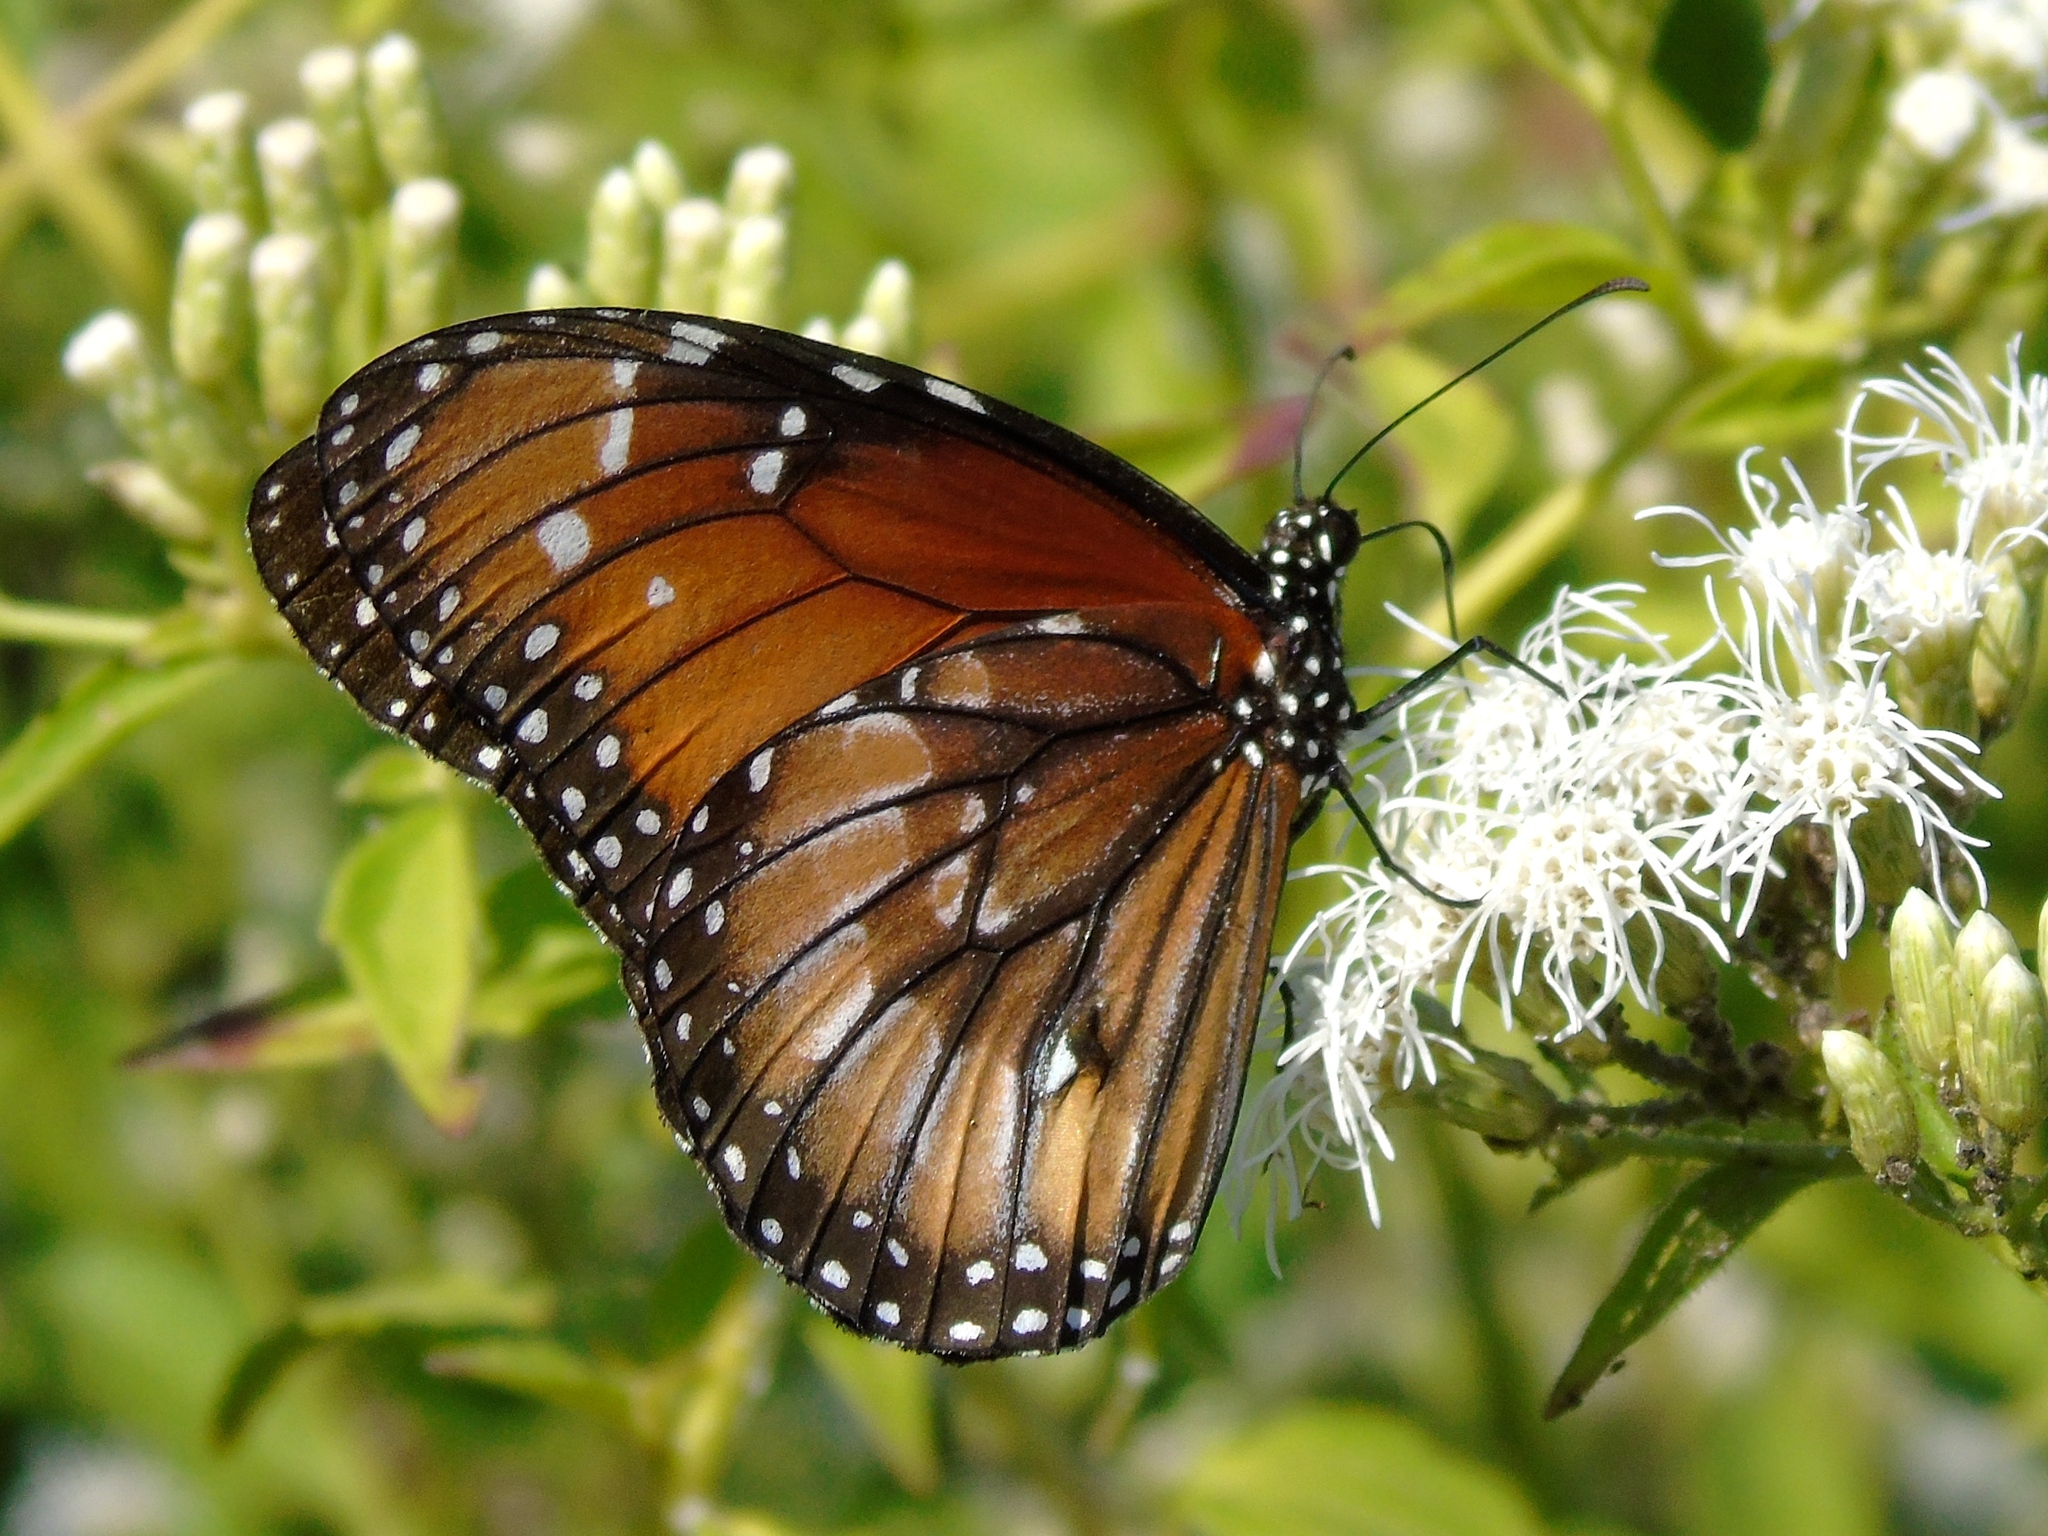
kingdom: Animalia
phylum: Arthropoda
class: Insecta
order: Lepidoptera
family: Nymphalidae
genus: Danaus
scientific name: Danaus eresimus
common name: Soldier
